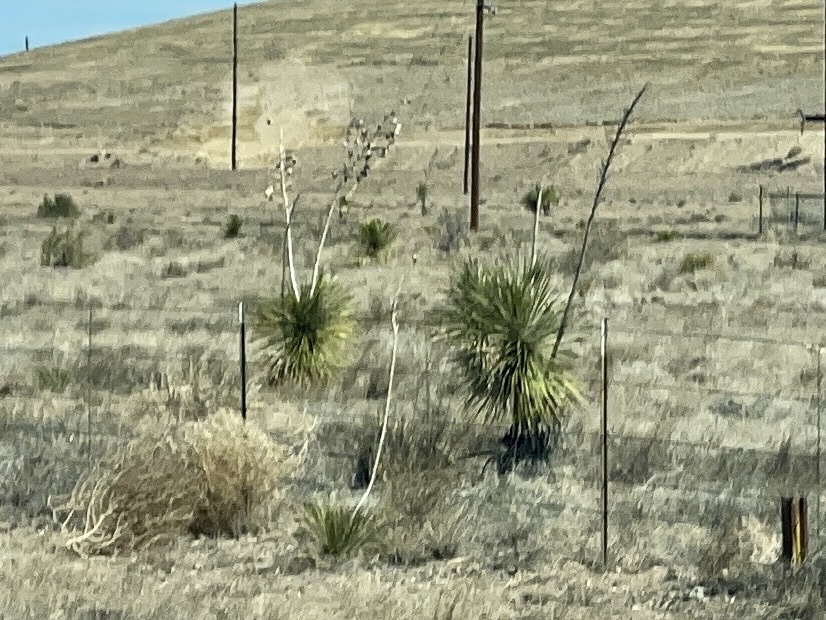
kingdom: Plantae
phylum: Tracheophyta
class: Liliopsida
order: Asparagales
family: Asparagaceae
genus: Yucca
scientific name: Yucca elata
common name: Palmella
